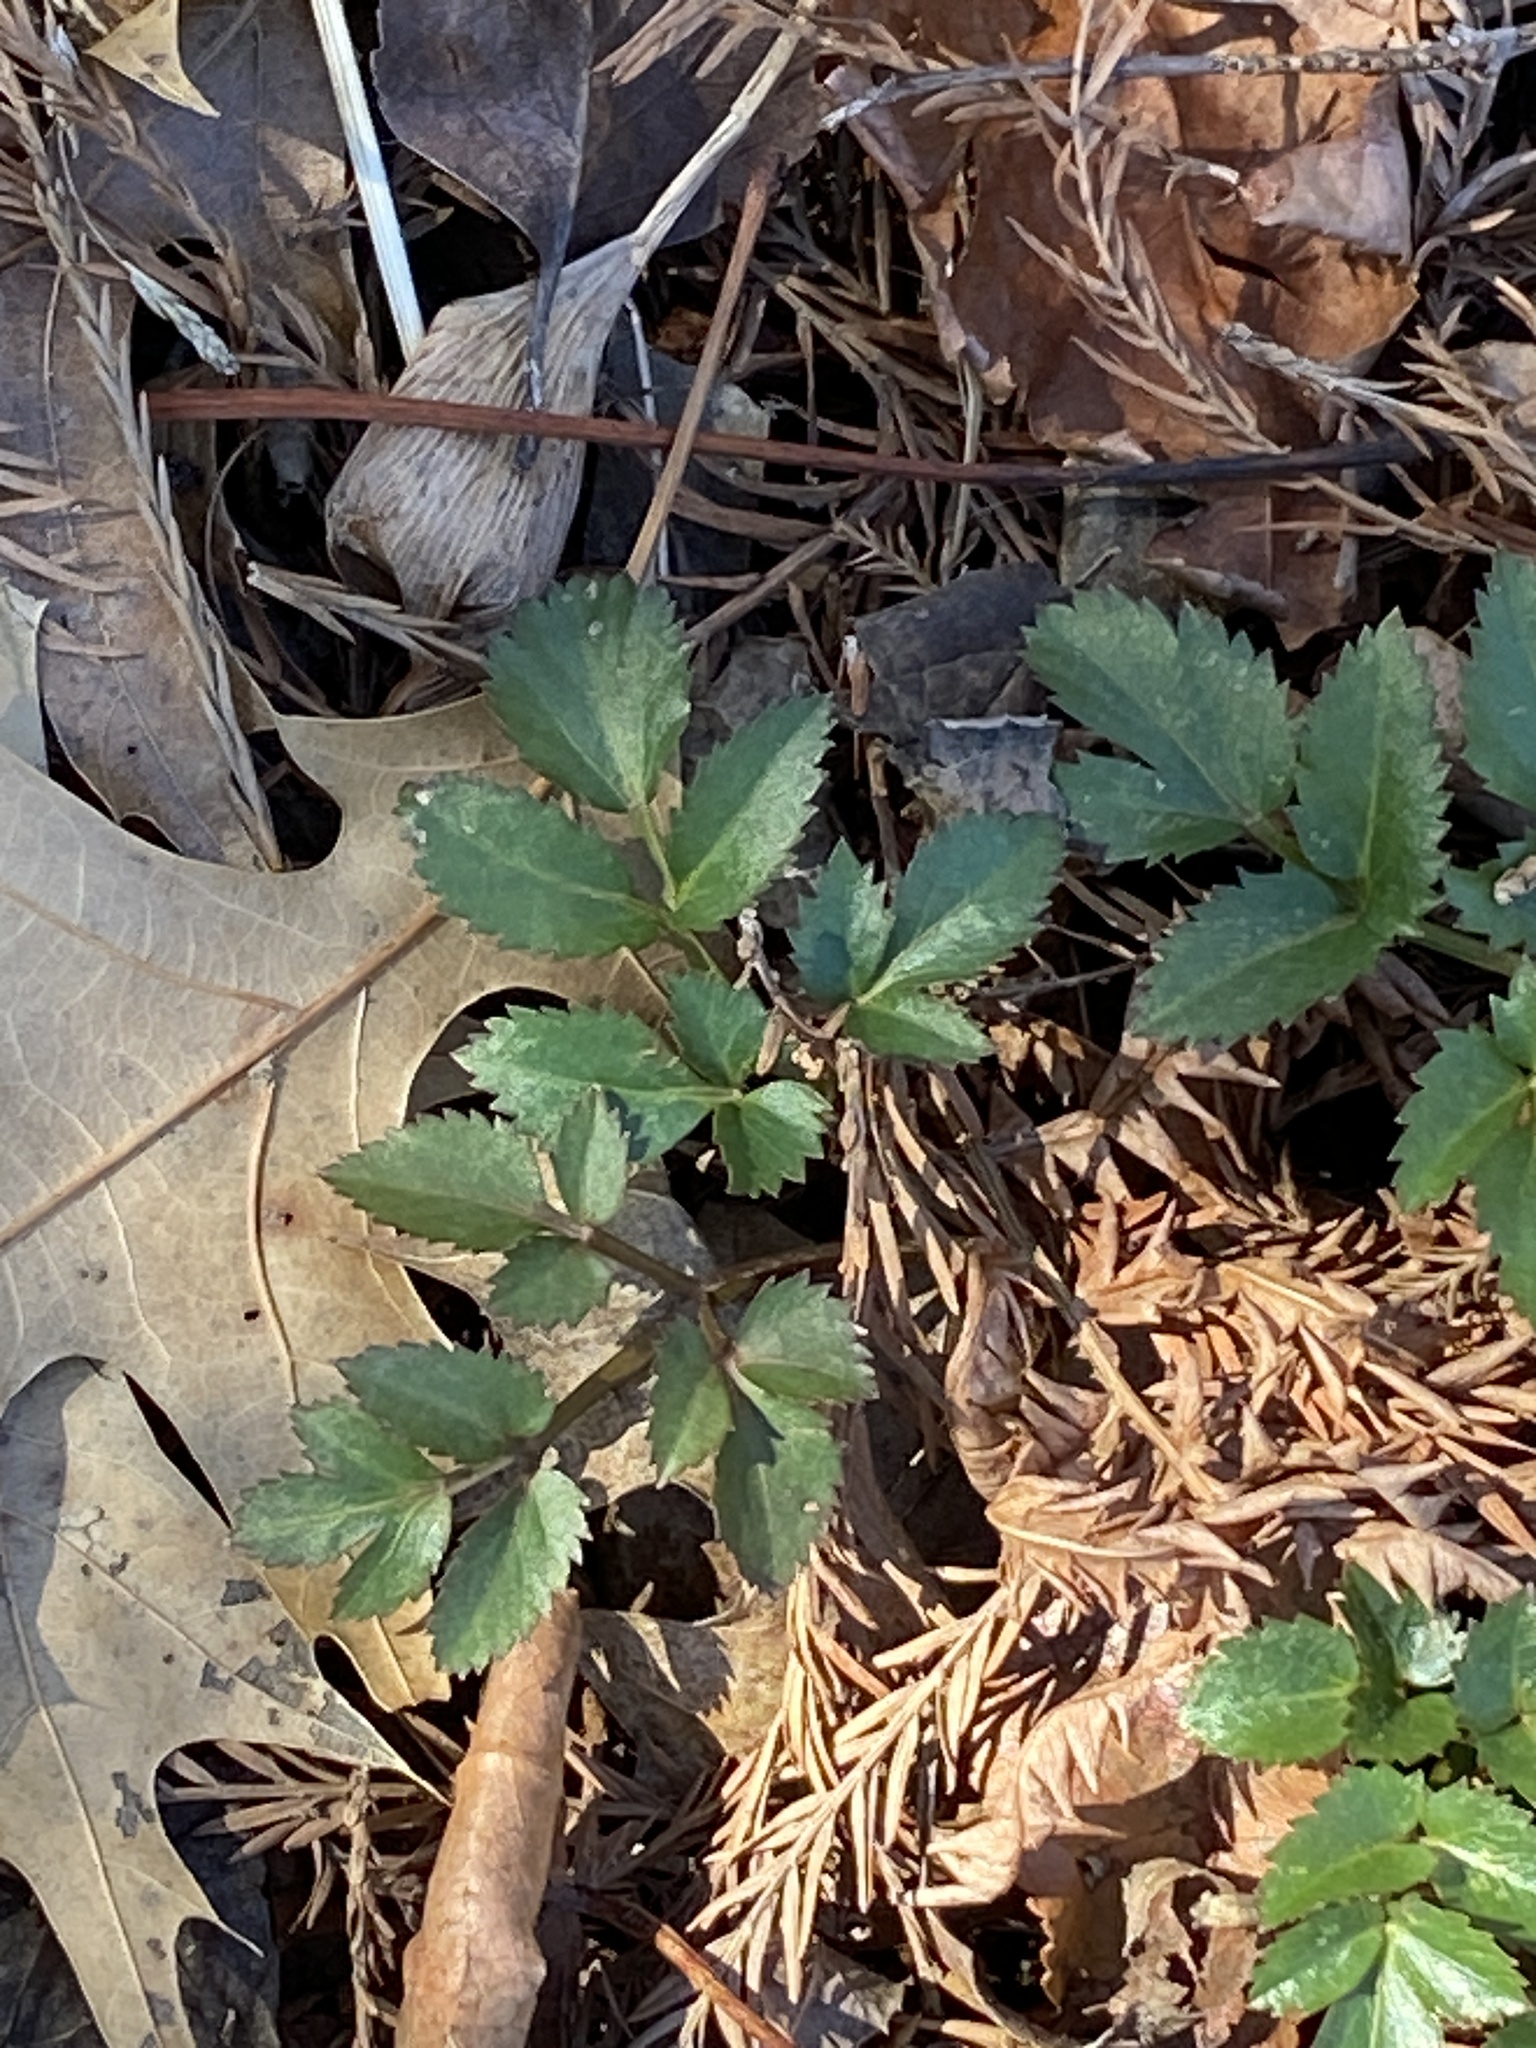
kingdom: Plantae
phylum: Tracheophyta
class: Magnoliopsida
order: Apiales
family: Apiaceae
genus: Zizia
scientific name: Zizia aurea
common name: Golden alexanders
